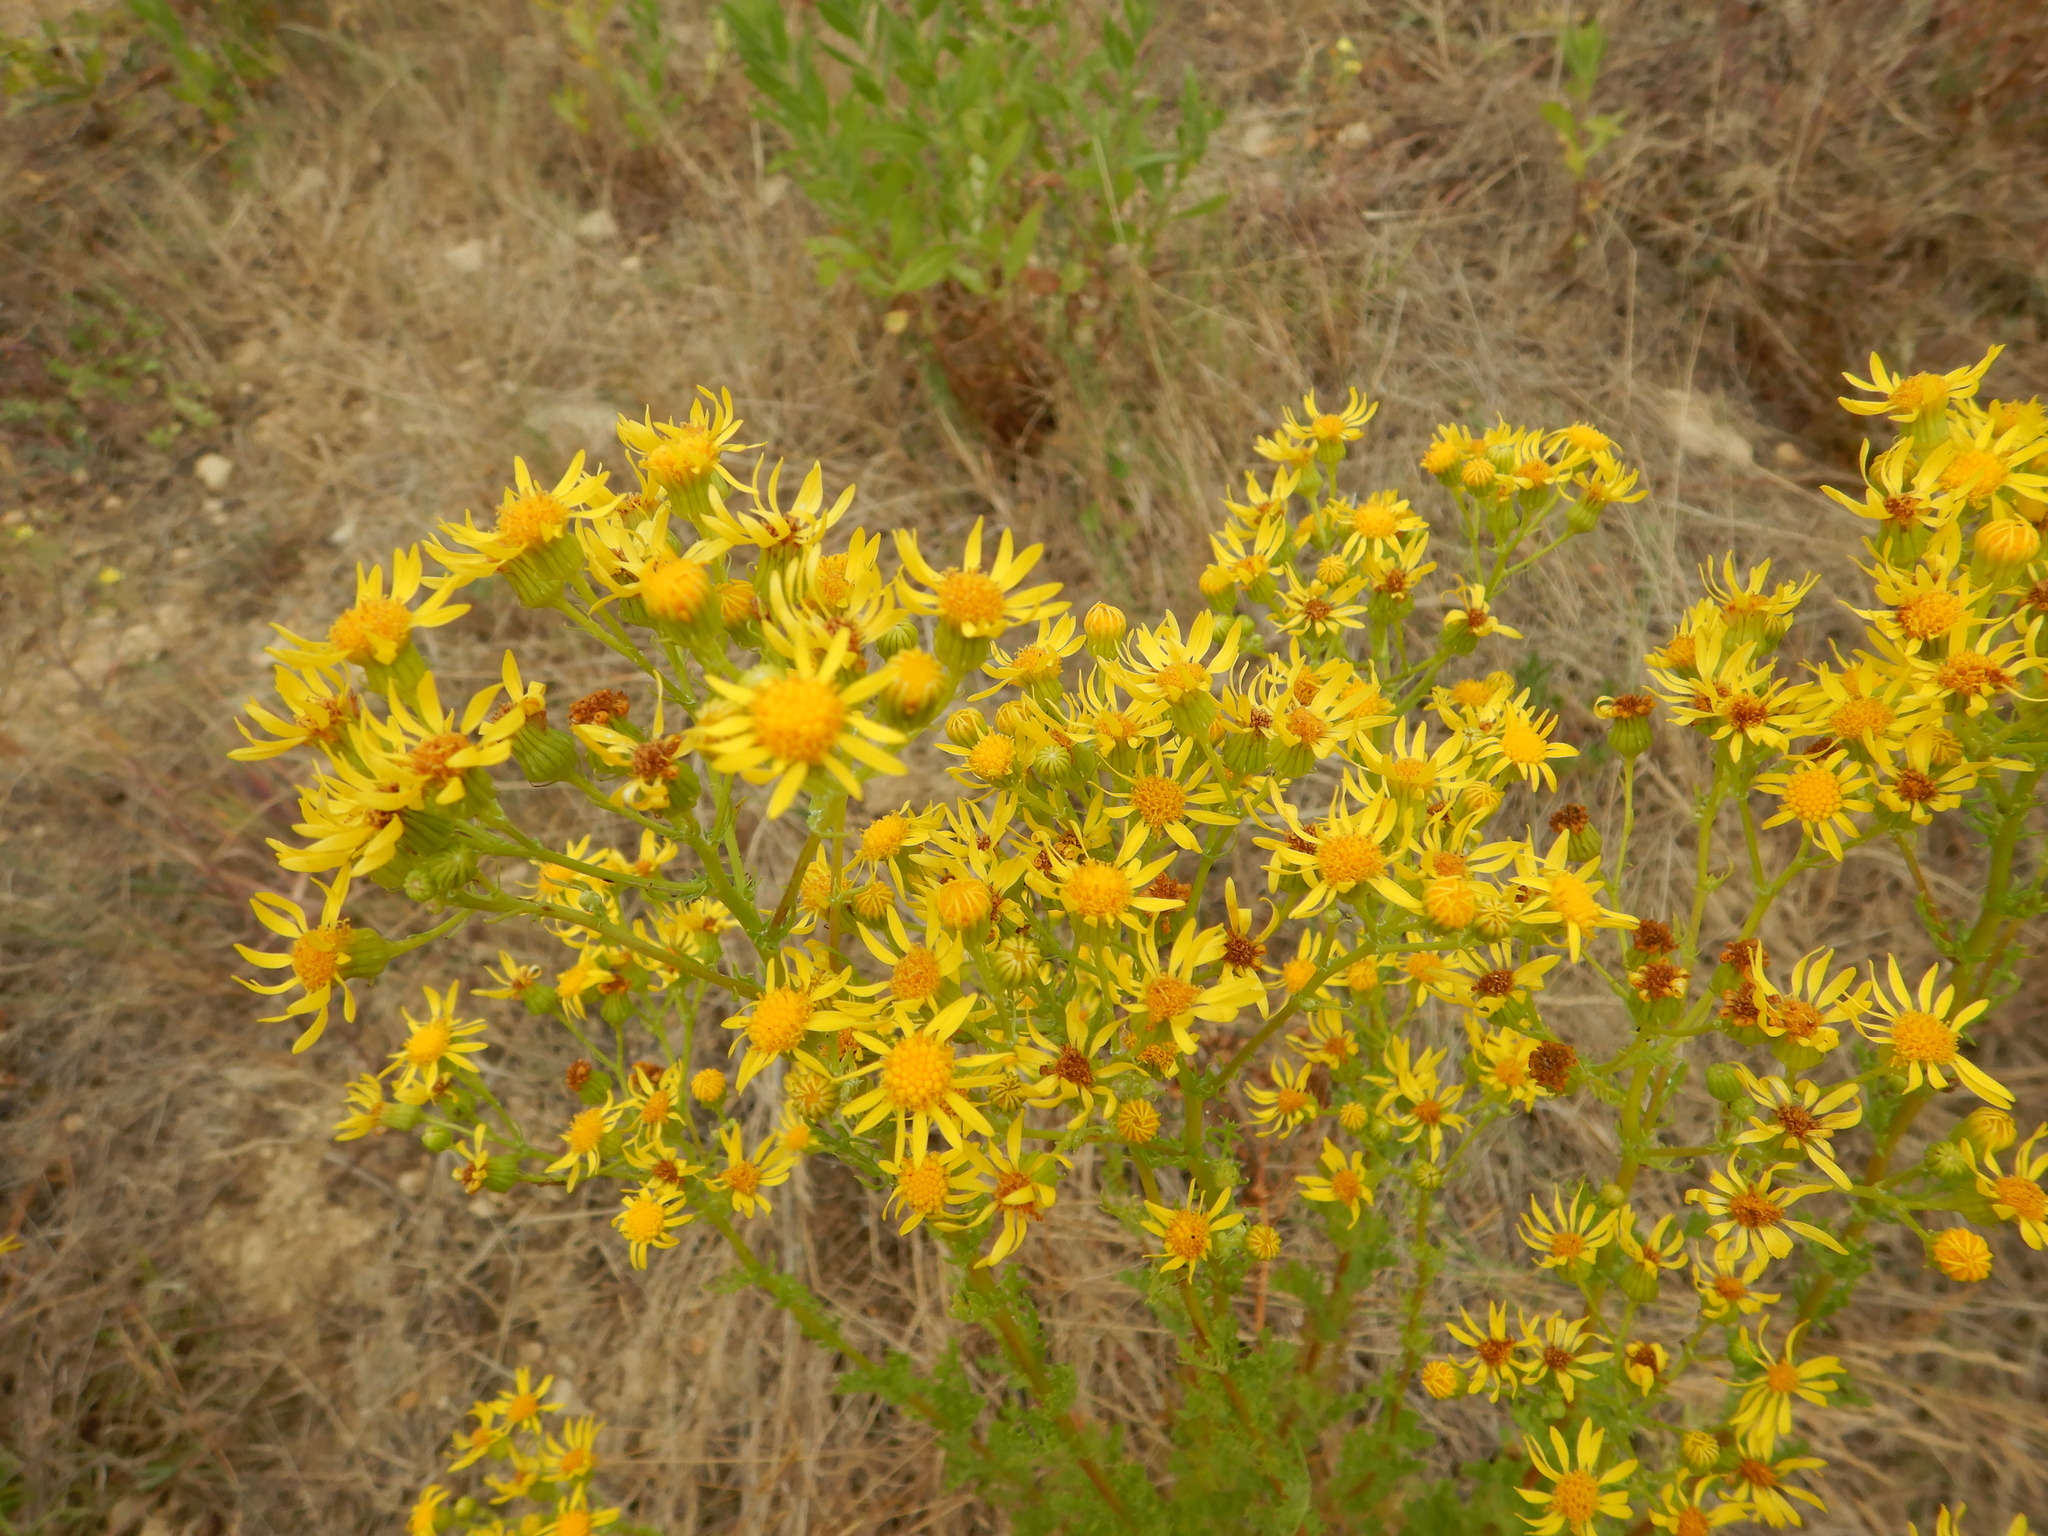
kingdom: Plantae
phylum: Tracheophyta
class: Magnoliopsida
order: Asterales
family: Asteraceae
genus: Jacobaea
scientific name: Jacobaea vulgaris
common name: Stinking willie
